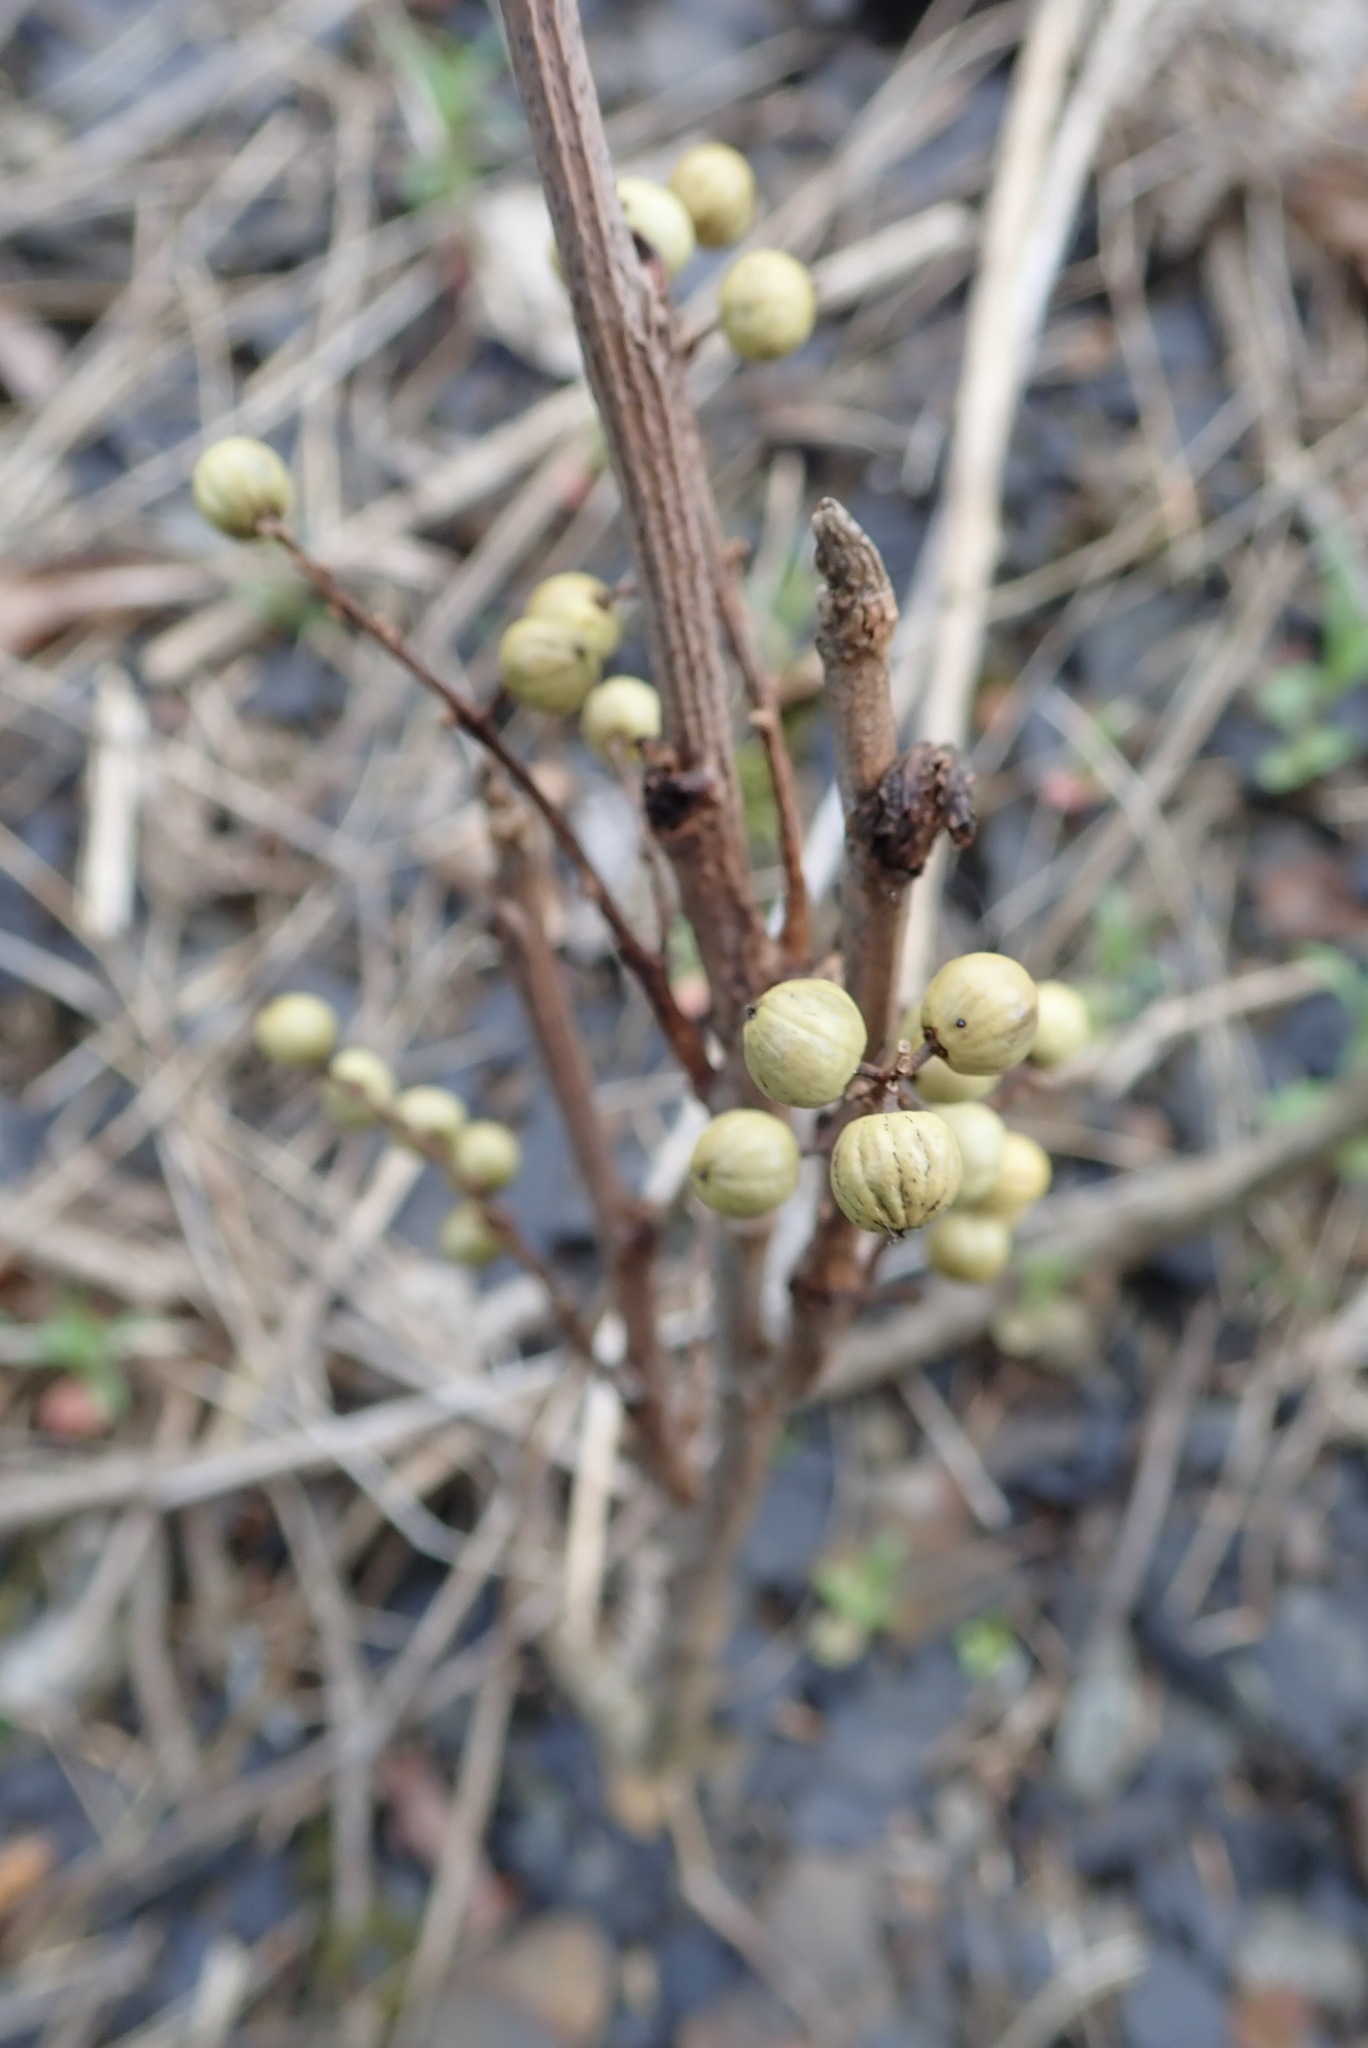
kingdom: Plantae
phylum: Tracheophyta
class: Magnoliopsida
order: Sapindales
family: Anacardiaceae
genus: Toxicodendron
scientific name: Toxicodendron rydbergii
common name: Rydberg's poison-ivy
